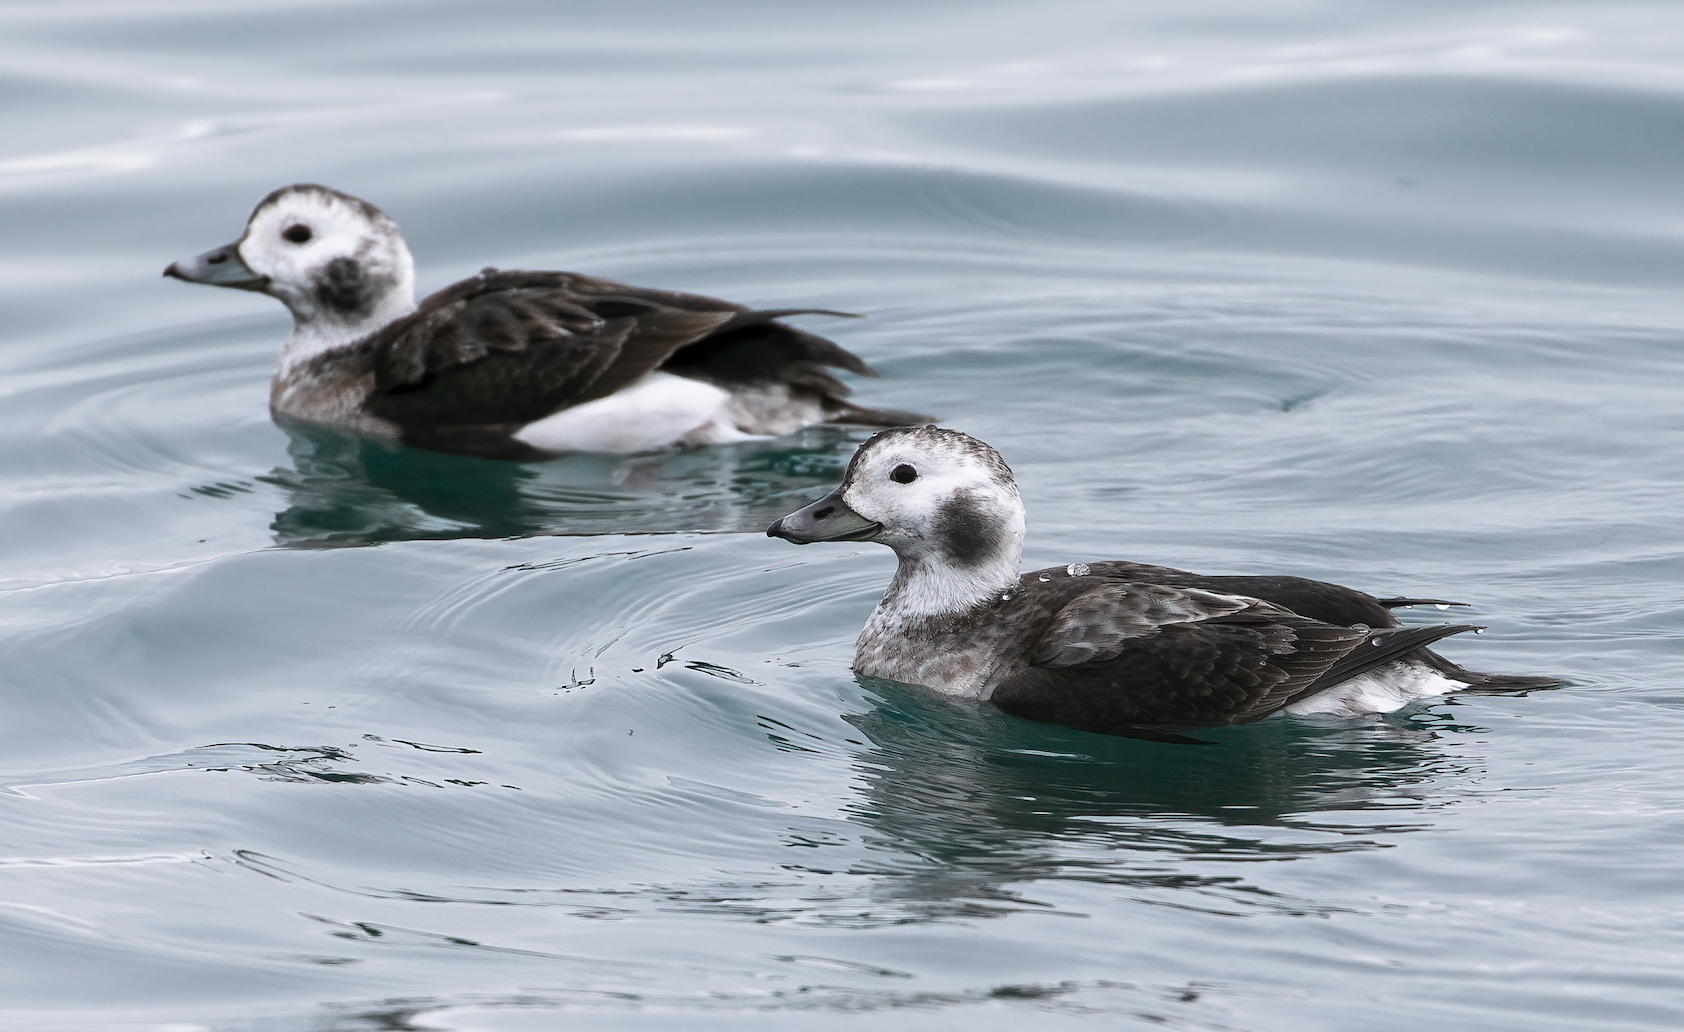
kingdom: Animalia
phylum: Chordata
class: Aves
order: Anseriformes
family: Anatidae
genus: Clangula
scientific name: Clangula hyemalis
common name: Long-tailed duck
